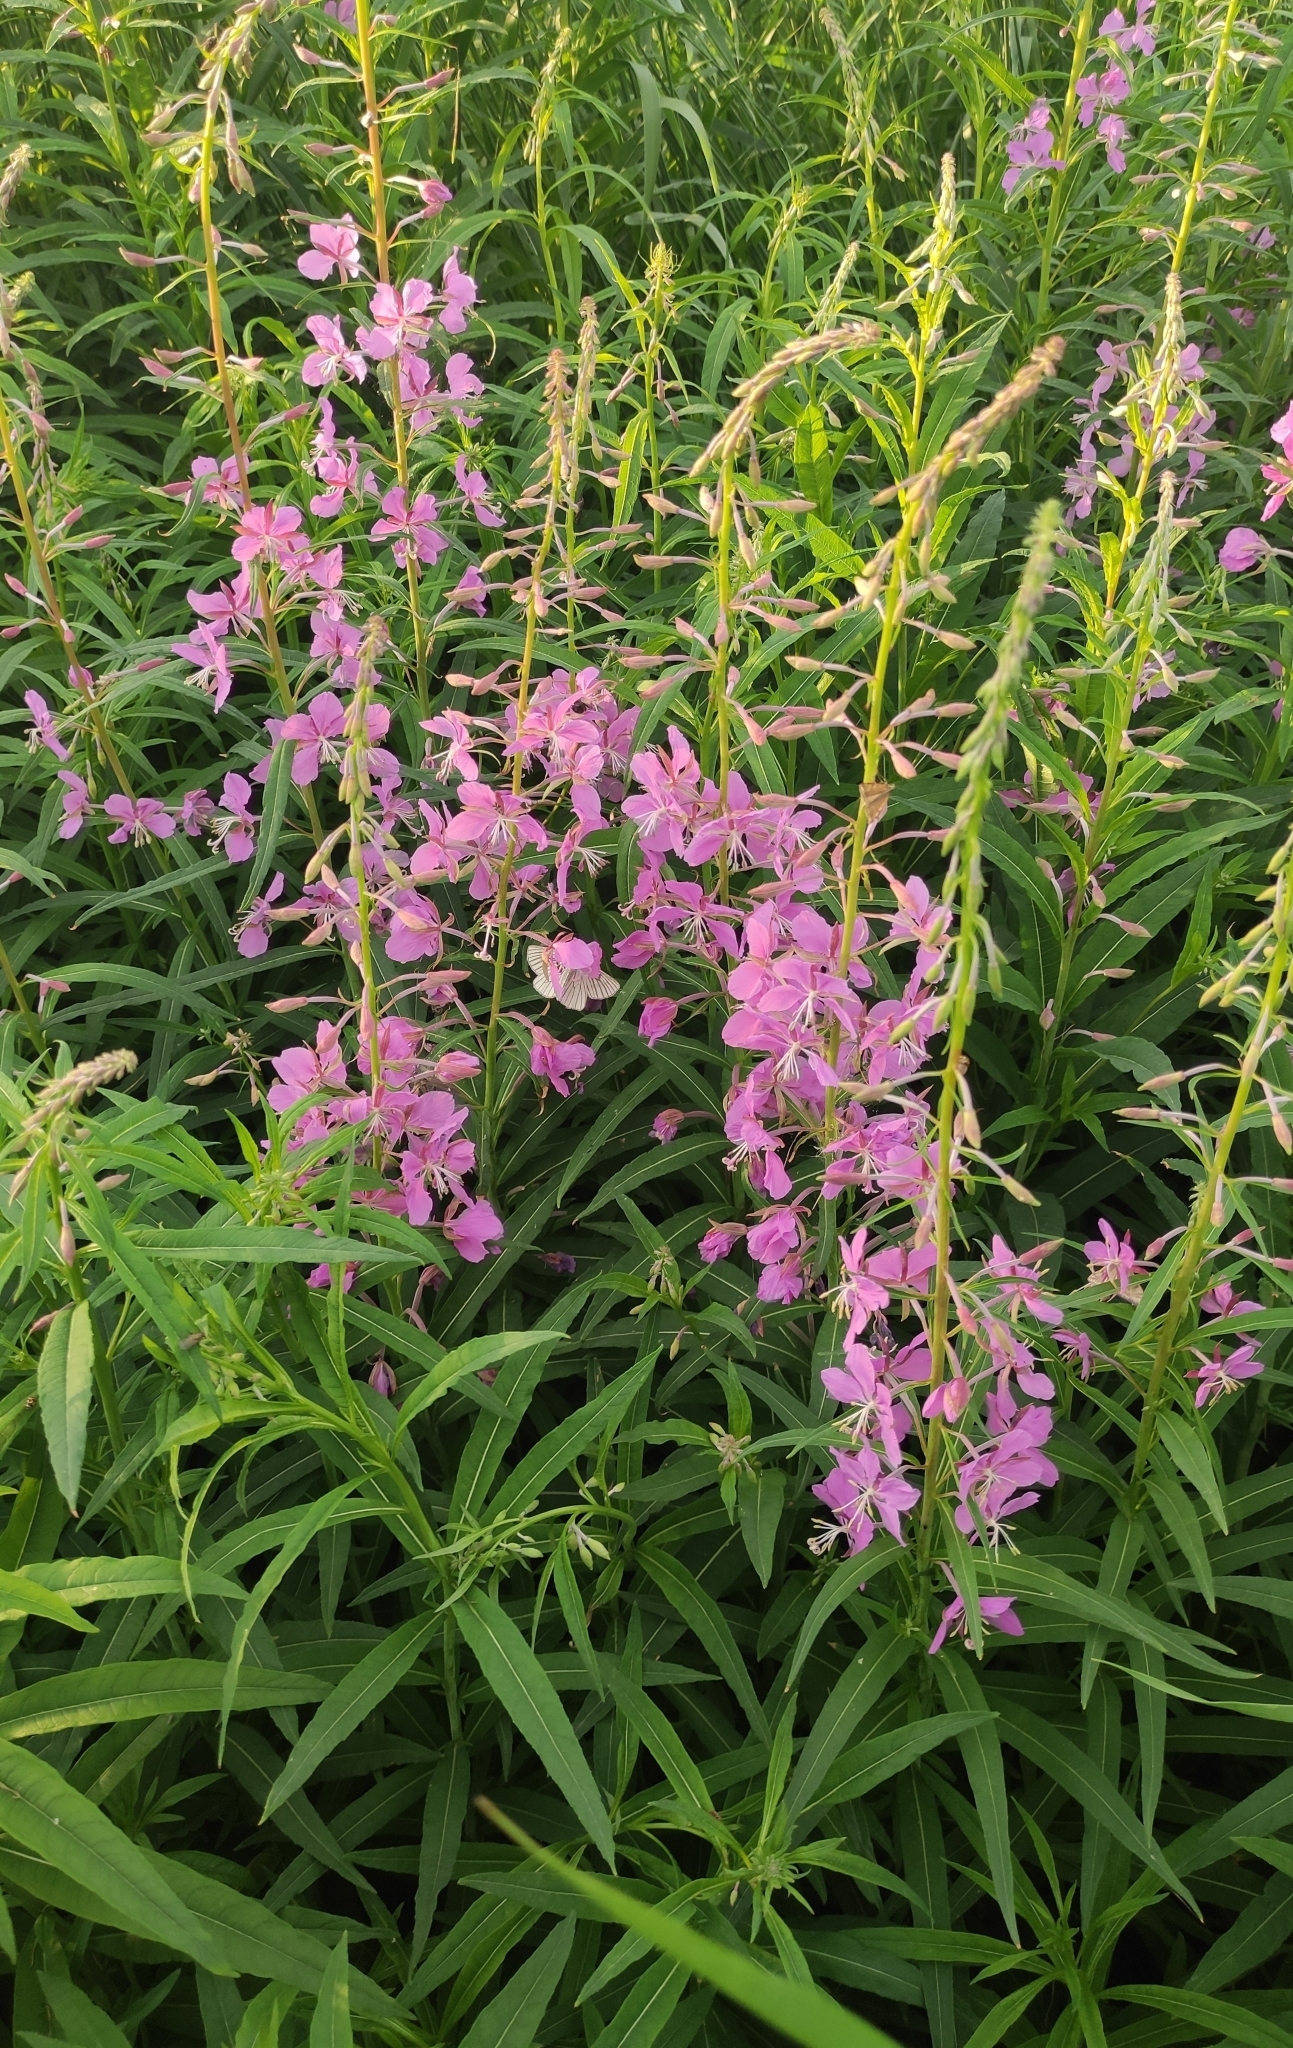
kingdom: Plantae
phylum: Tracheophyta
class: Magnoliopsida
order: Myrtales
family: Onagraceae
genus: Chamaenerion
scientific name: Chamaenerion angustifolium
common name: Fireweed
